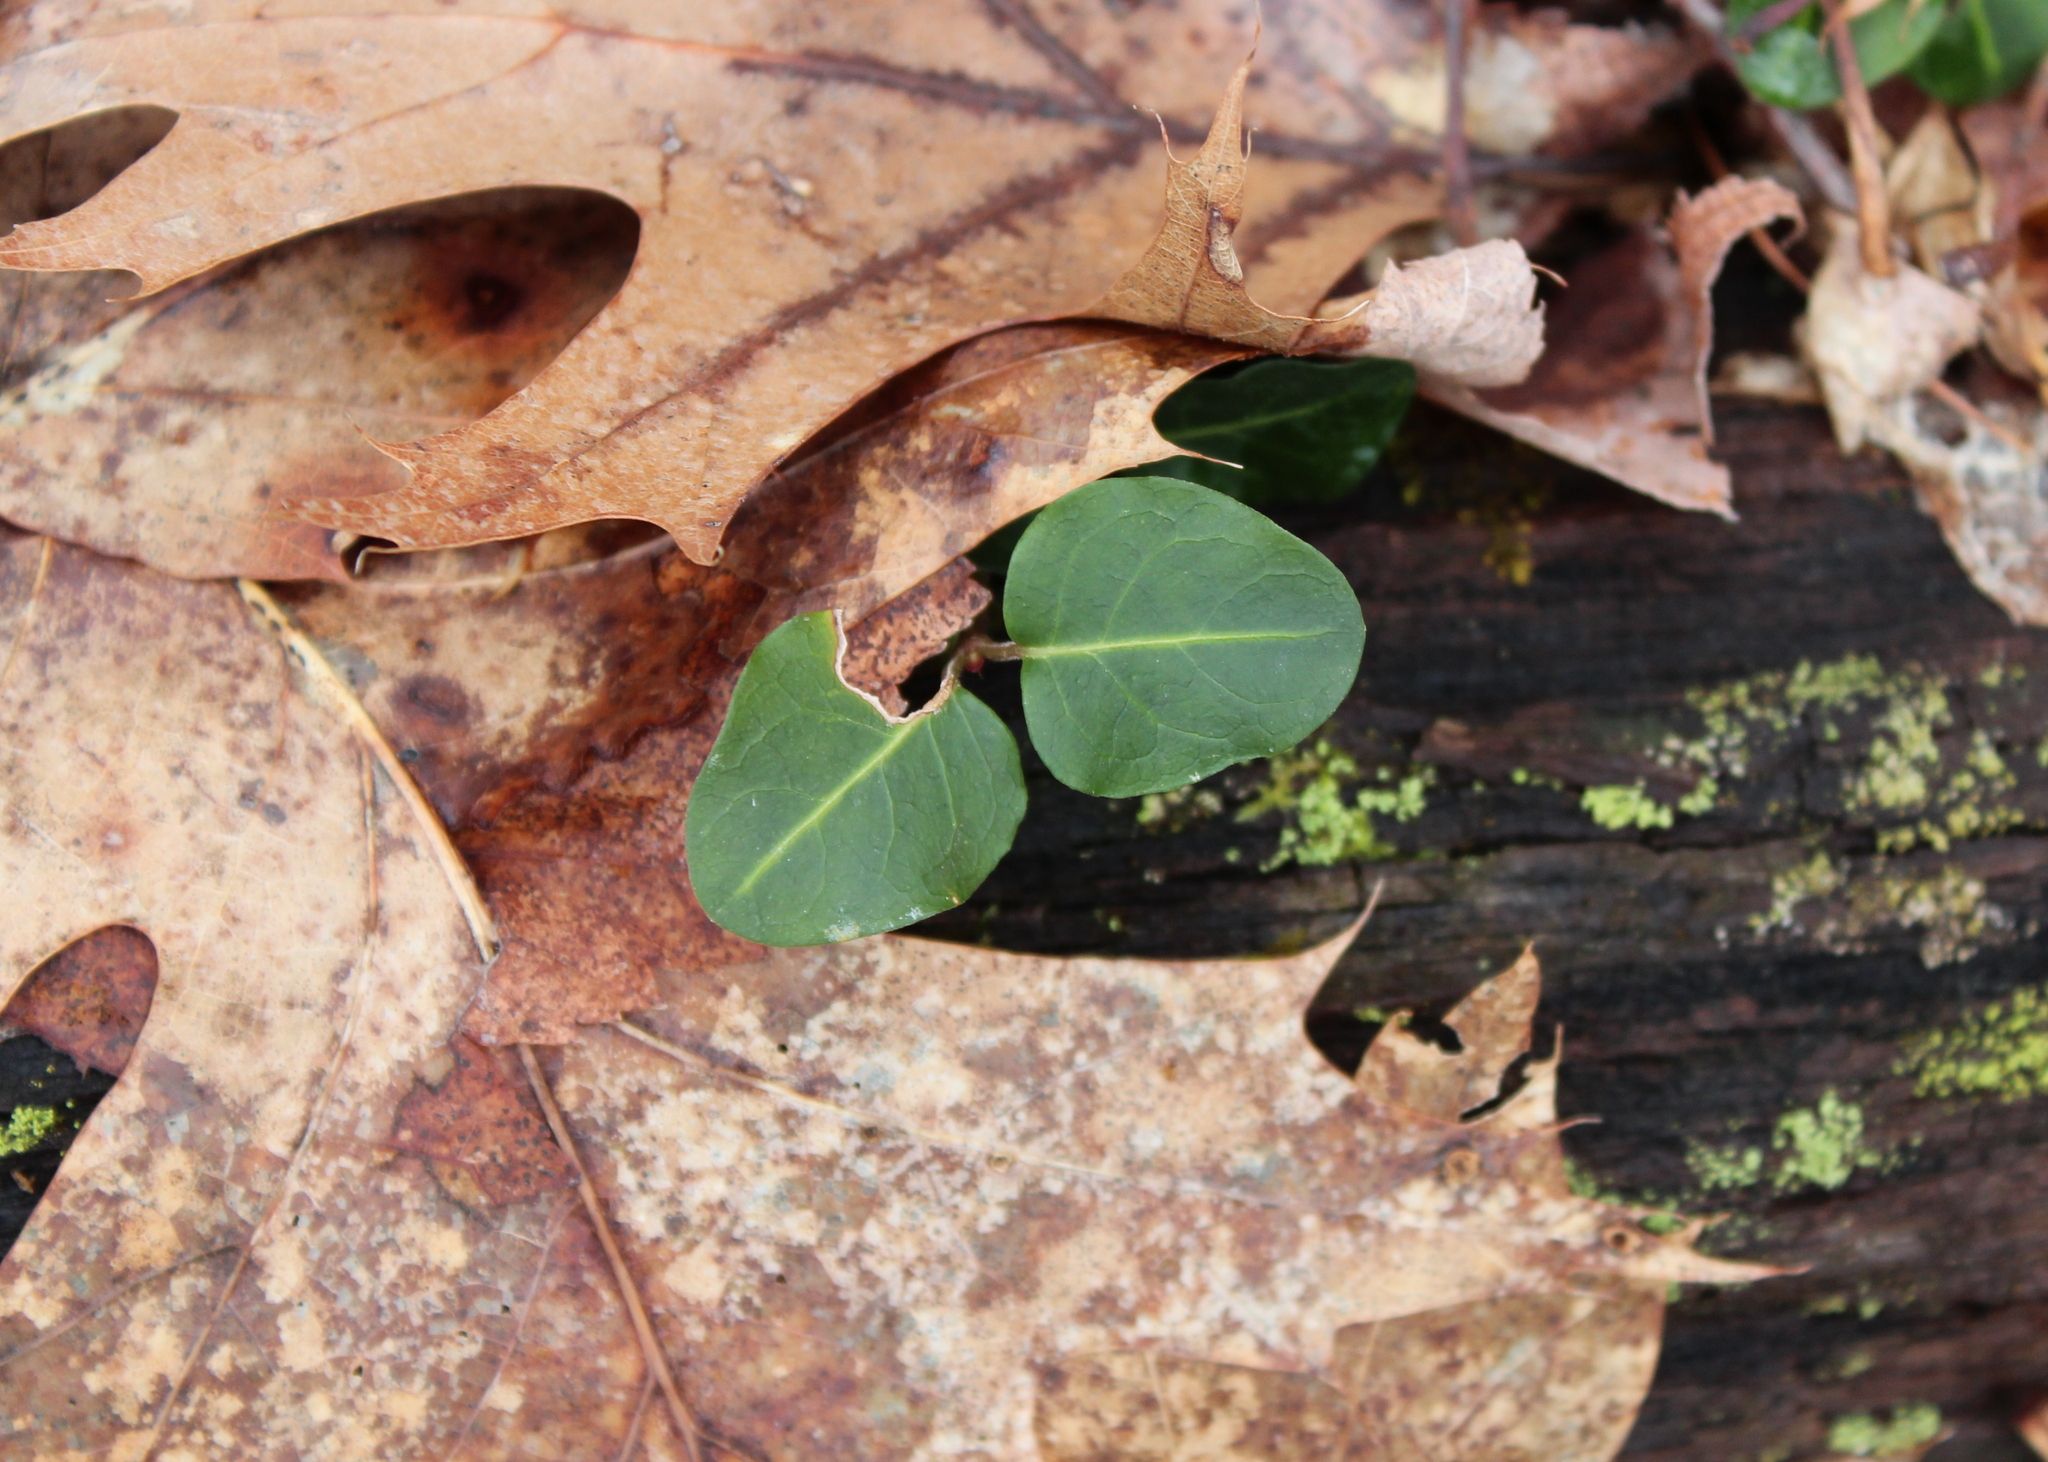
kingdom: Plantae
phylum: Tracheophyta
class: Magnoliopsida
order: Gentianales
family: Rubiaceae
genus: Mitchella
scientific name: Mitchella repens
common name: Partridge-berry
